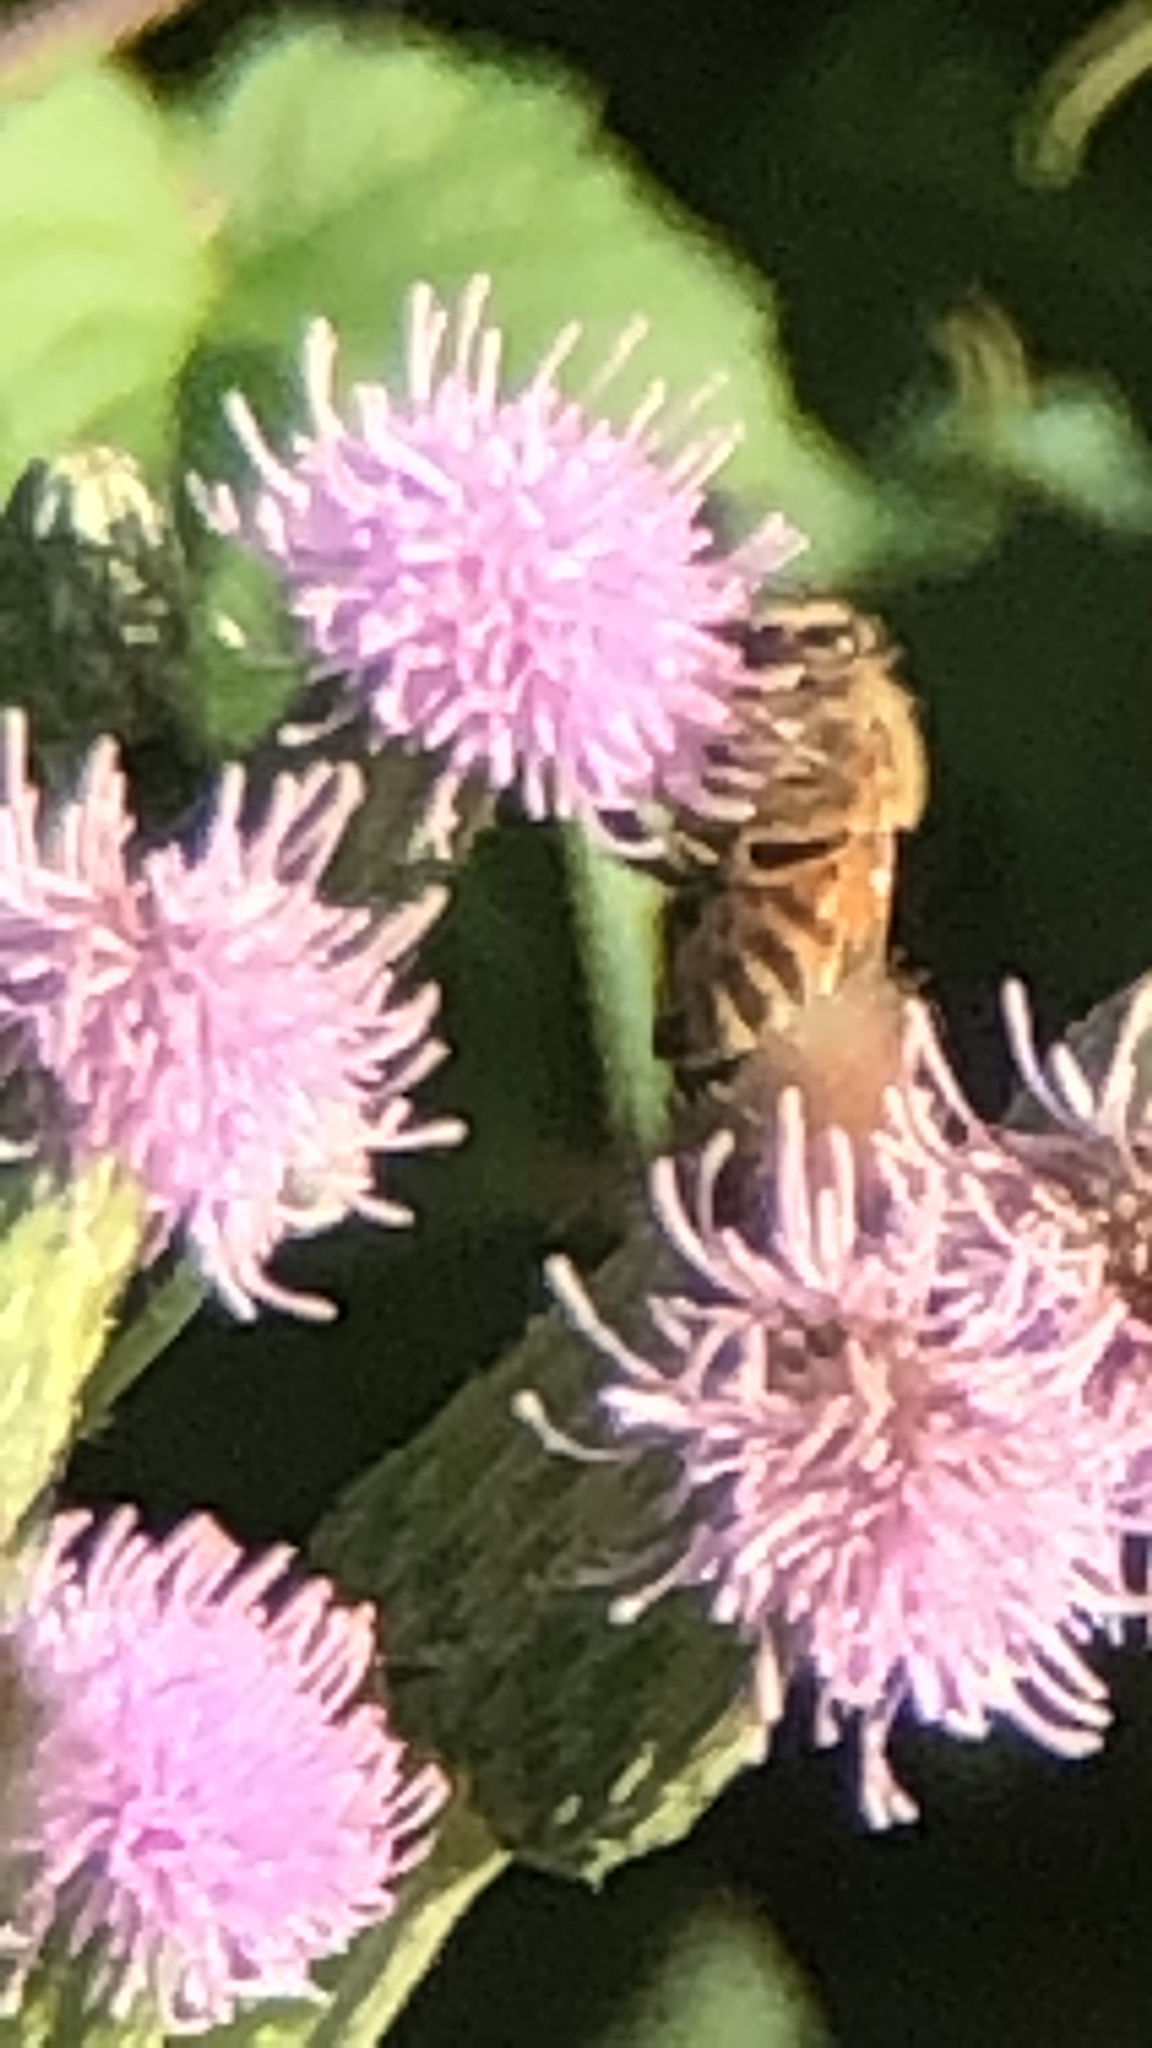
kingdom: Animalia
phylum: Arthropoda
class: Insecta
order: Hymenoptera
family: Apidae
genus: Apis
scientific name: Apis mellifera
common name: Honey bee
